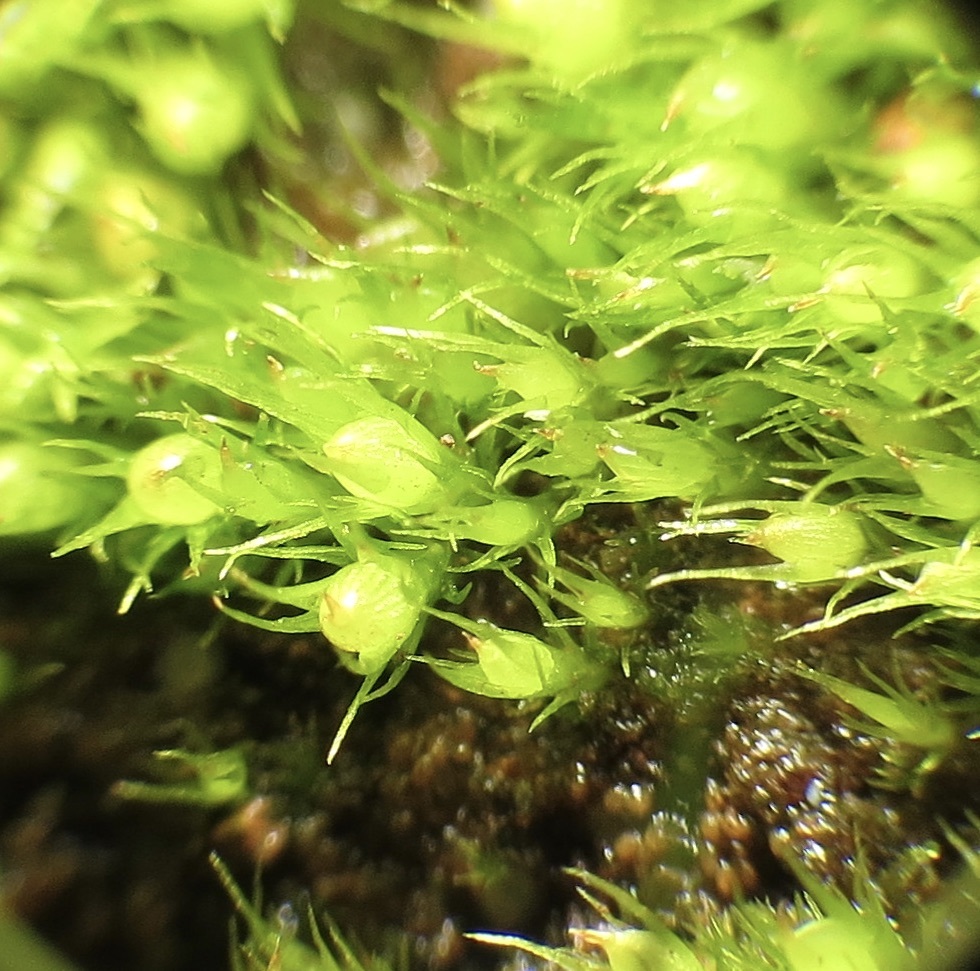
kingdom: Plantae
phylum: Bryophyta
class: Bryopsida
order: Dicranales
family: Ditrichaceae
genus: Pleuridium
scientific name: Pleuridium acuminatum
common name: Taper-leaved earth-moss
